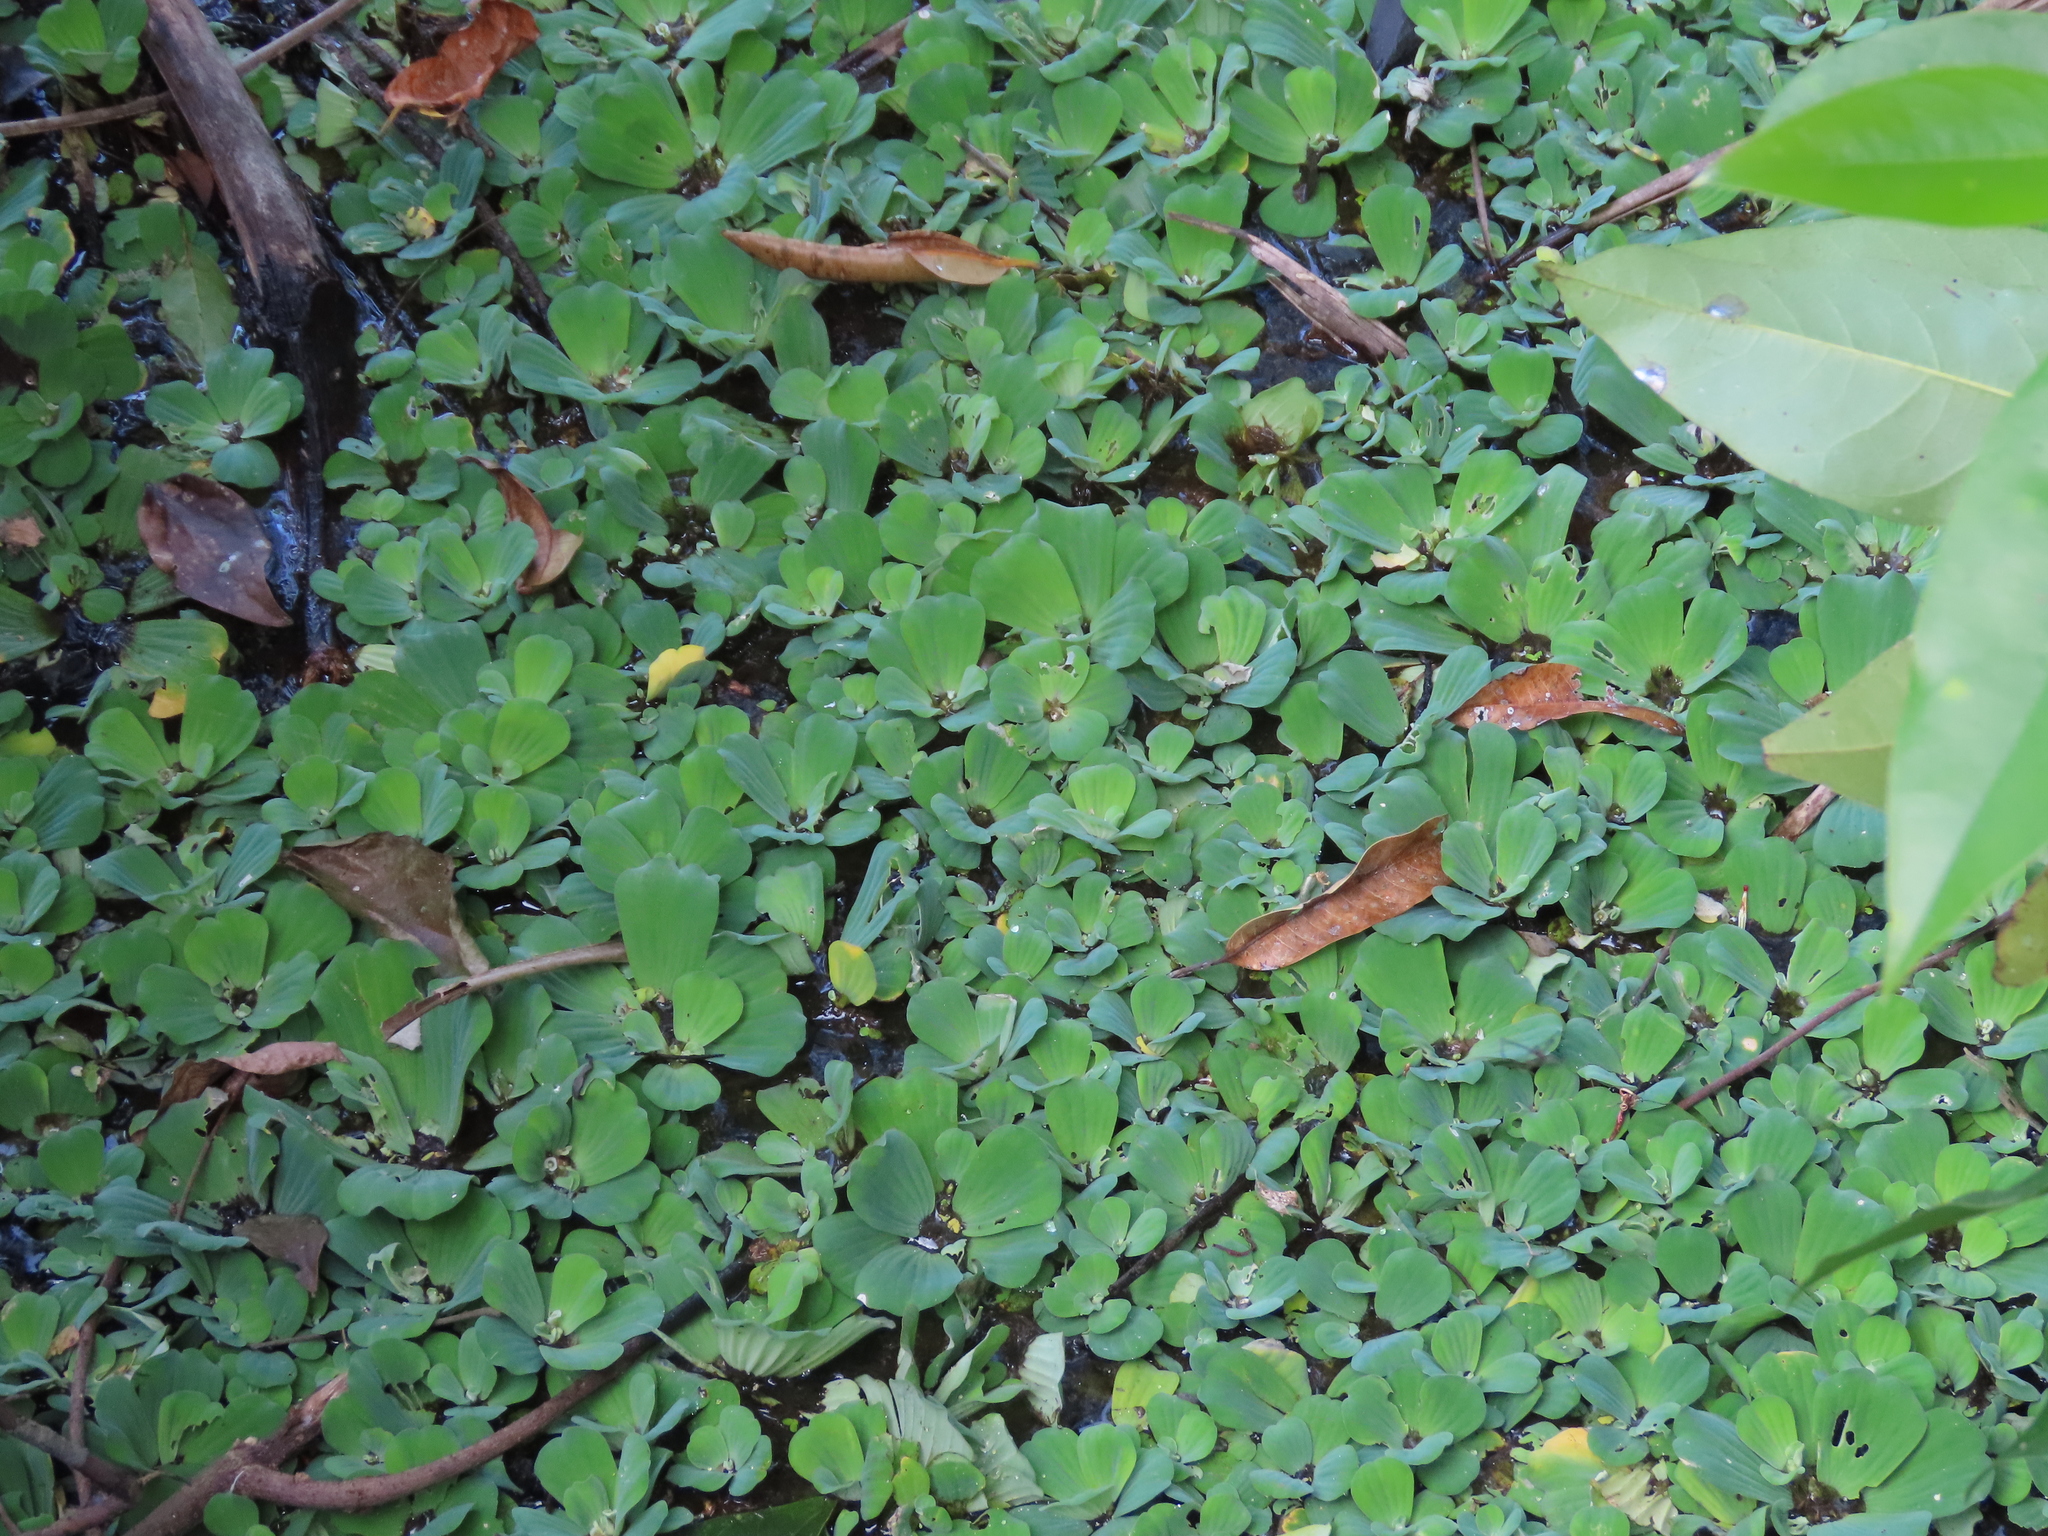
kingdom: Plantae
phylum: Tracheophyta
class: Liliopsida
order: Alismatales
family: Araceae
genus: Pistia
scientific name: Pistia stratiotes
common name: Water lettuce
